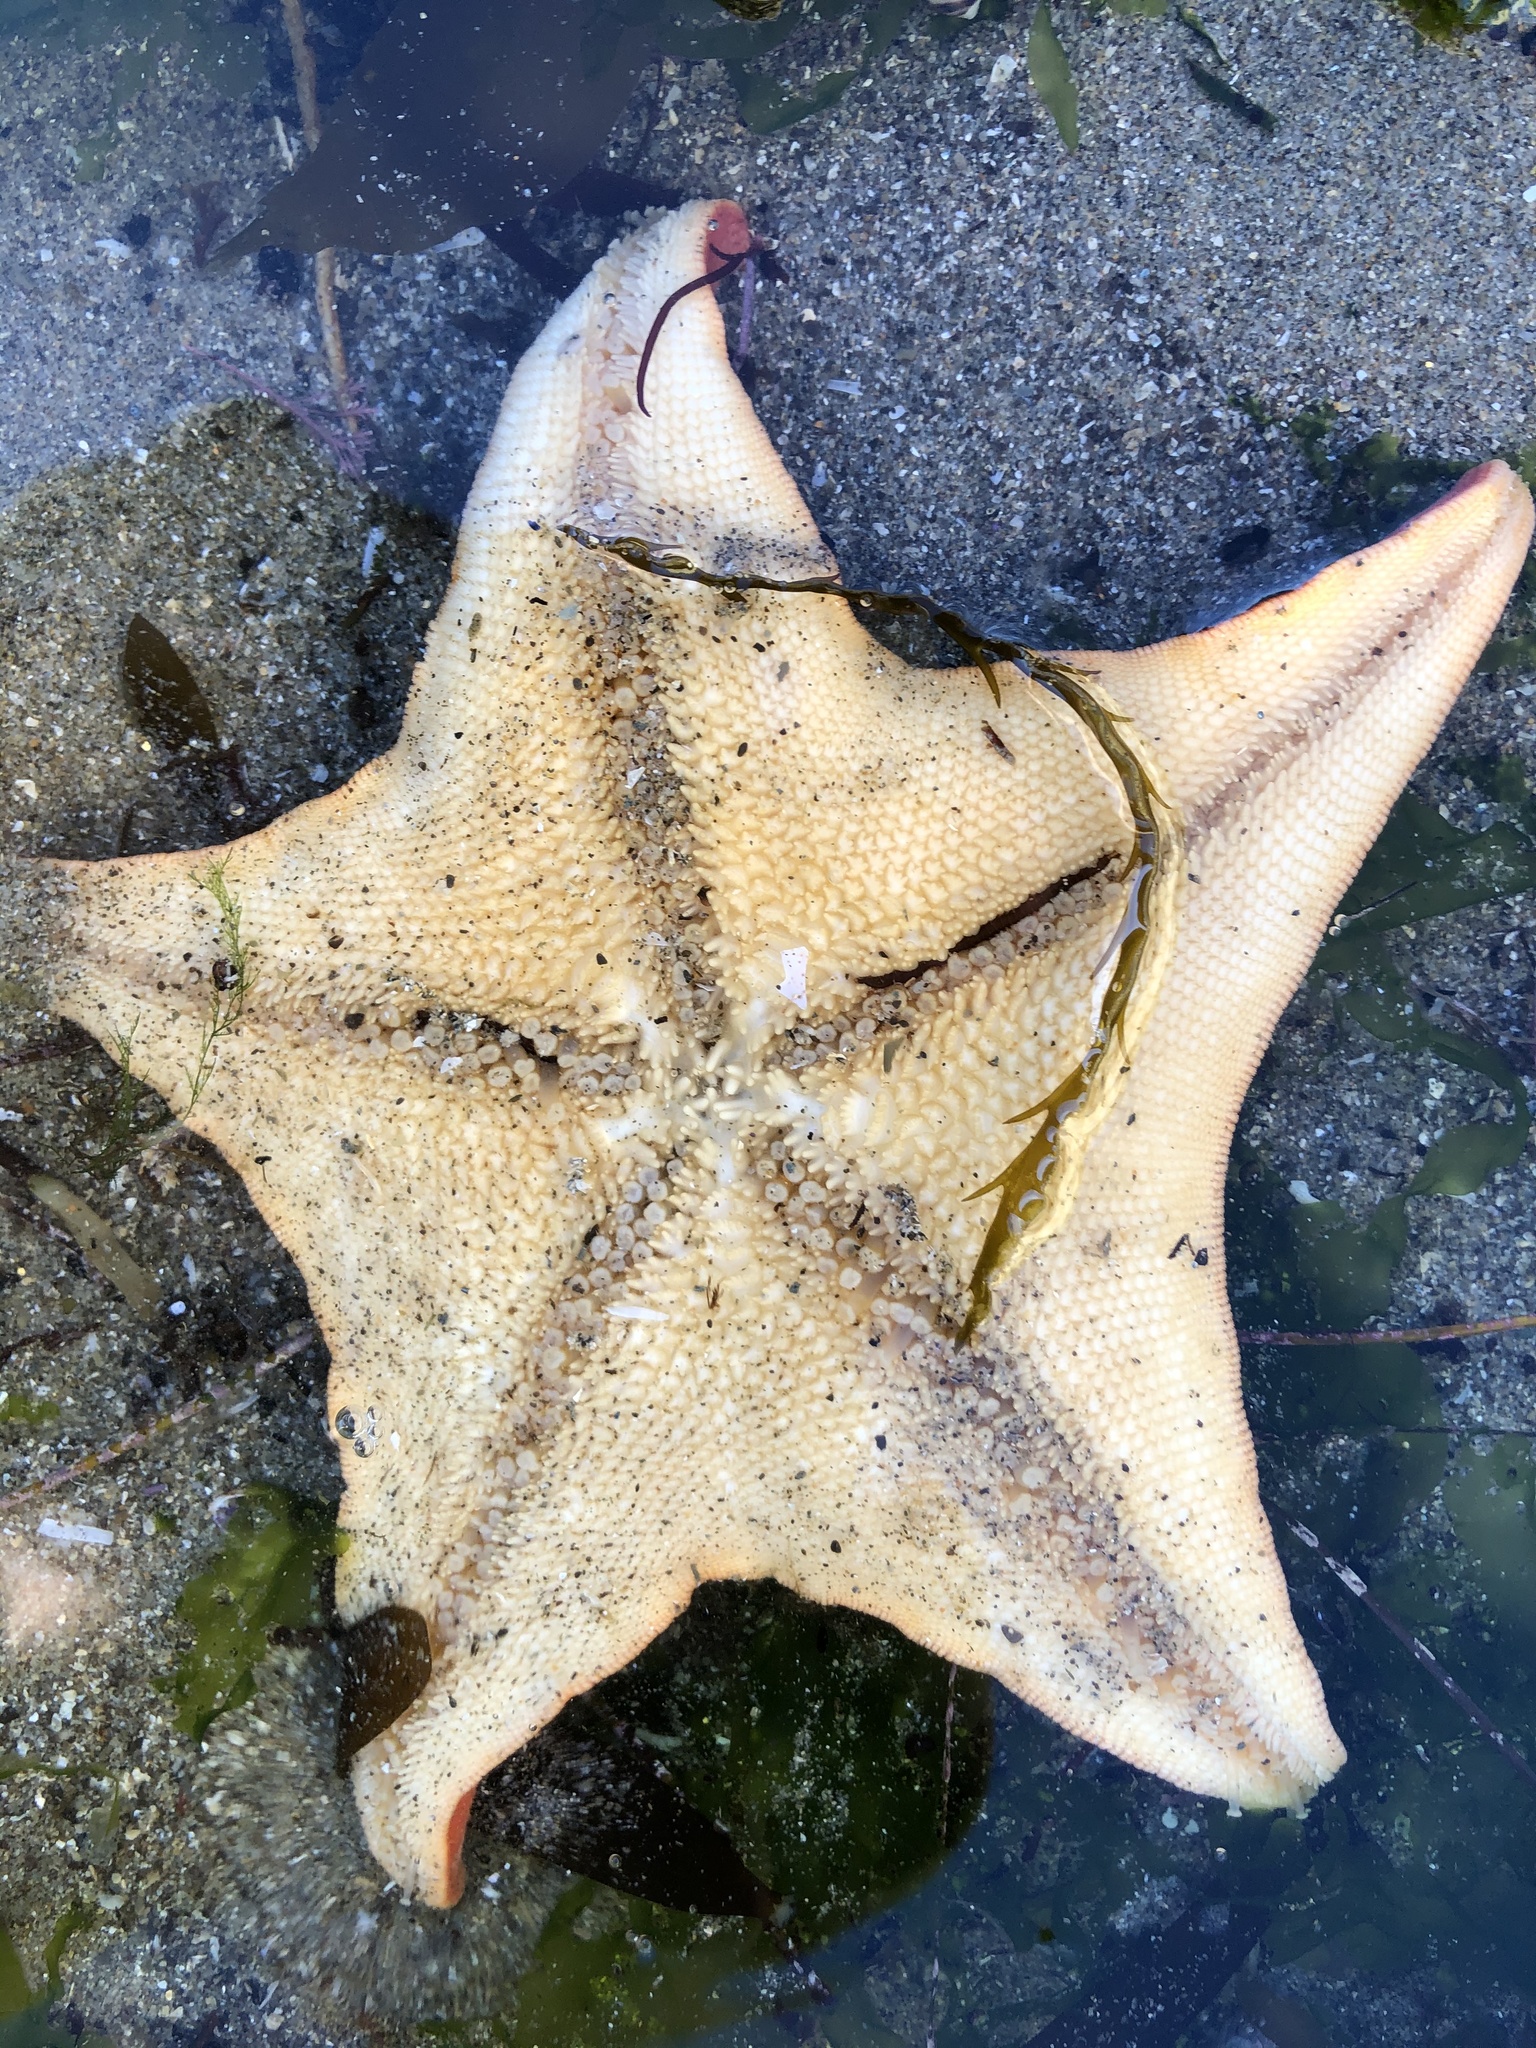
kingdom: Animalia
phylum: Echinodermata
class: Asteroidea
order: Valvatida
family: Asterinidae
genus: Patiria
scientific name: Patiria miniata
